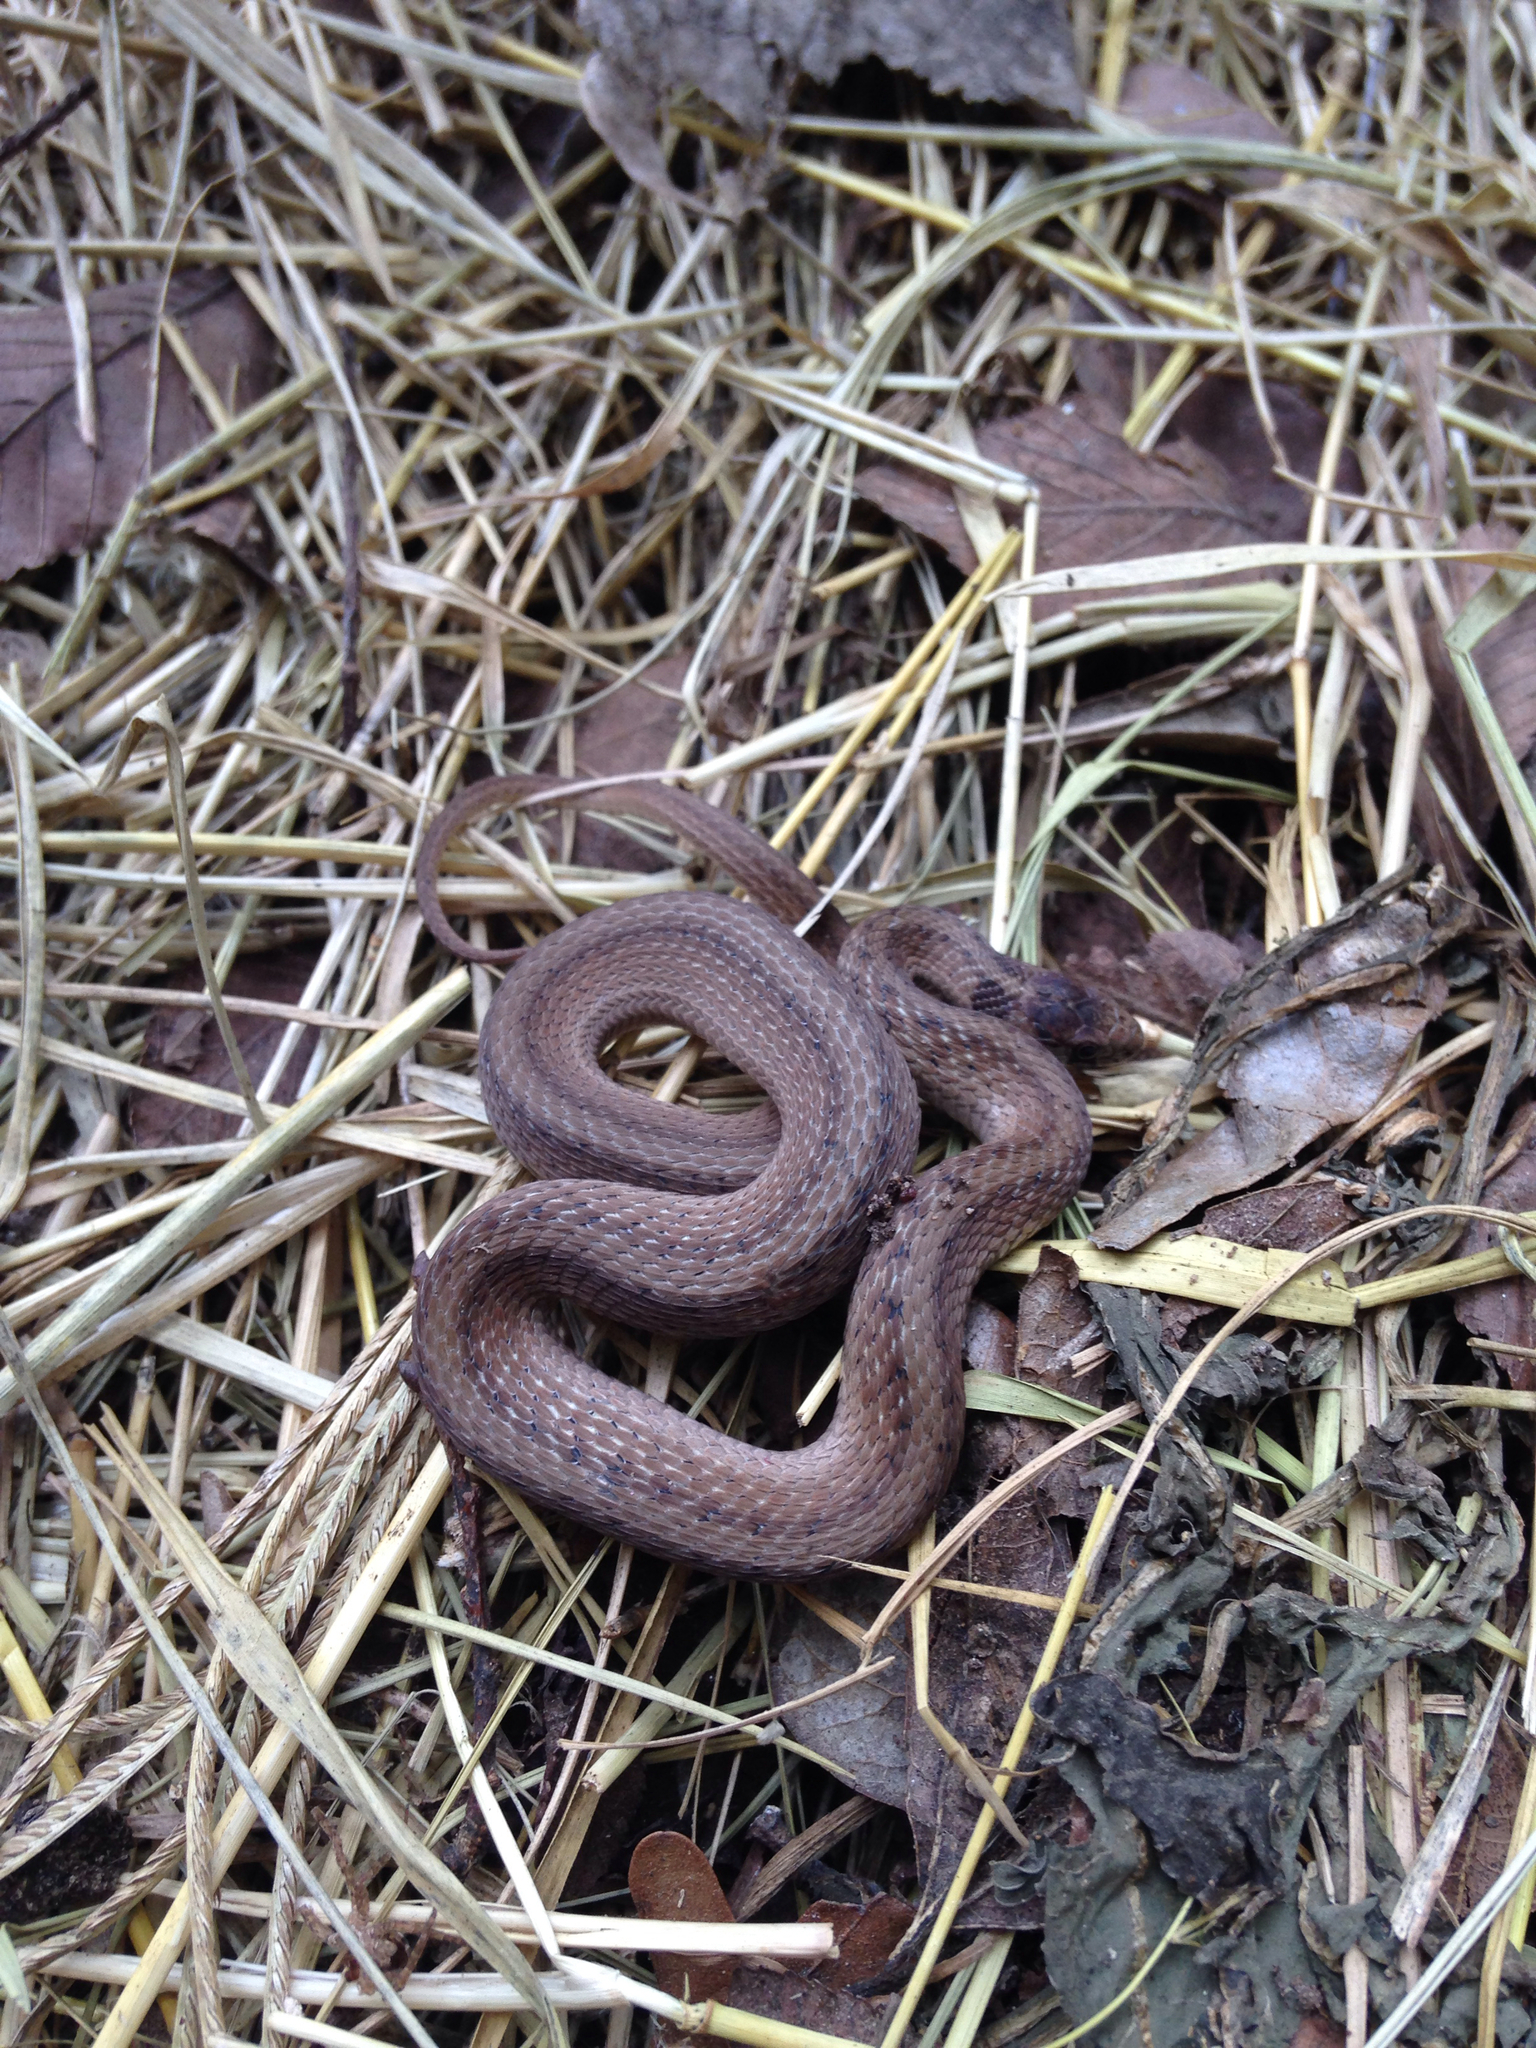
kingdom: Animalia
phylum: Chordata
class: Squamata
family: Colubridae
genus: Storeria
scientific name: Storeria dekayi
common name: (dekay’s) brown snake
